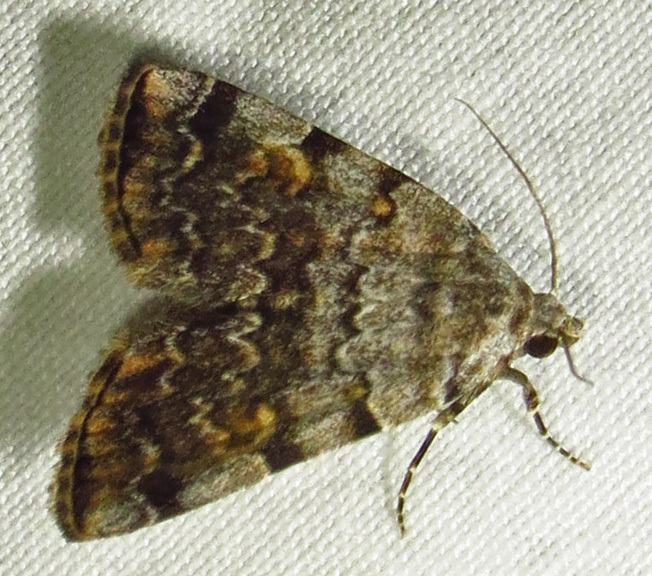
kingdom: Animalia
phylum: Arthropoda
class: Insecta
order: Lepidoptera
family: Erebidae
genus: Idia
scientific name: Idia americalis
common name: American idia moth
